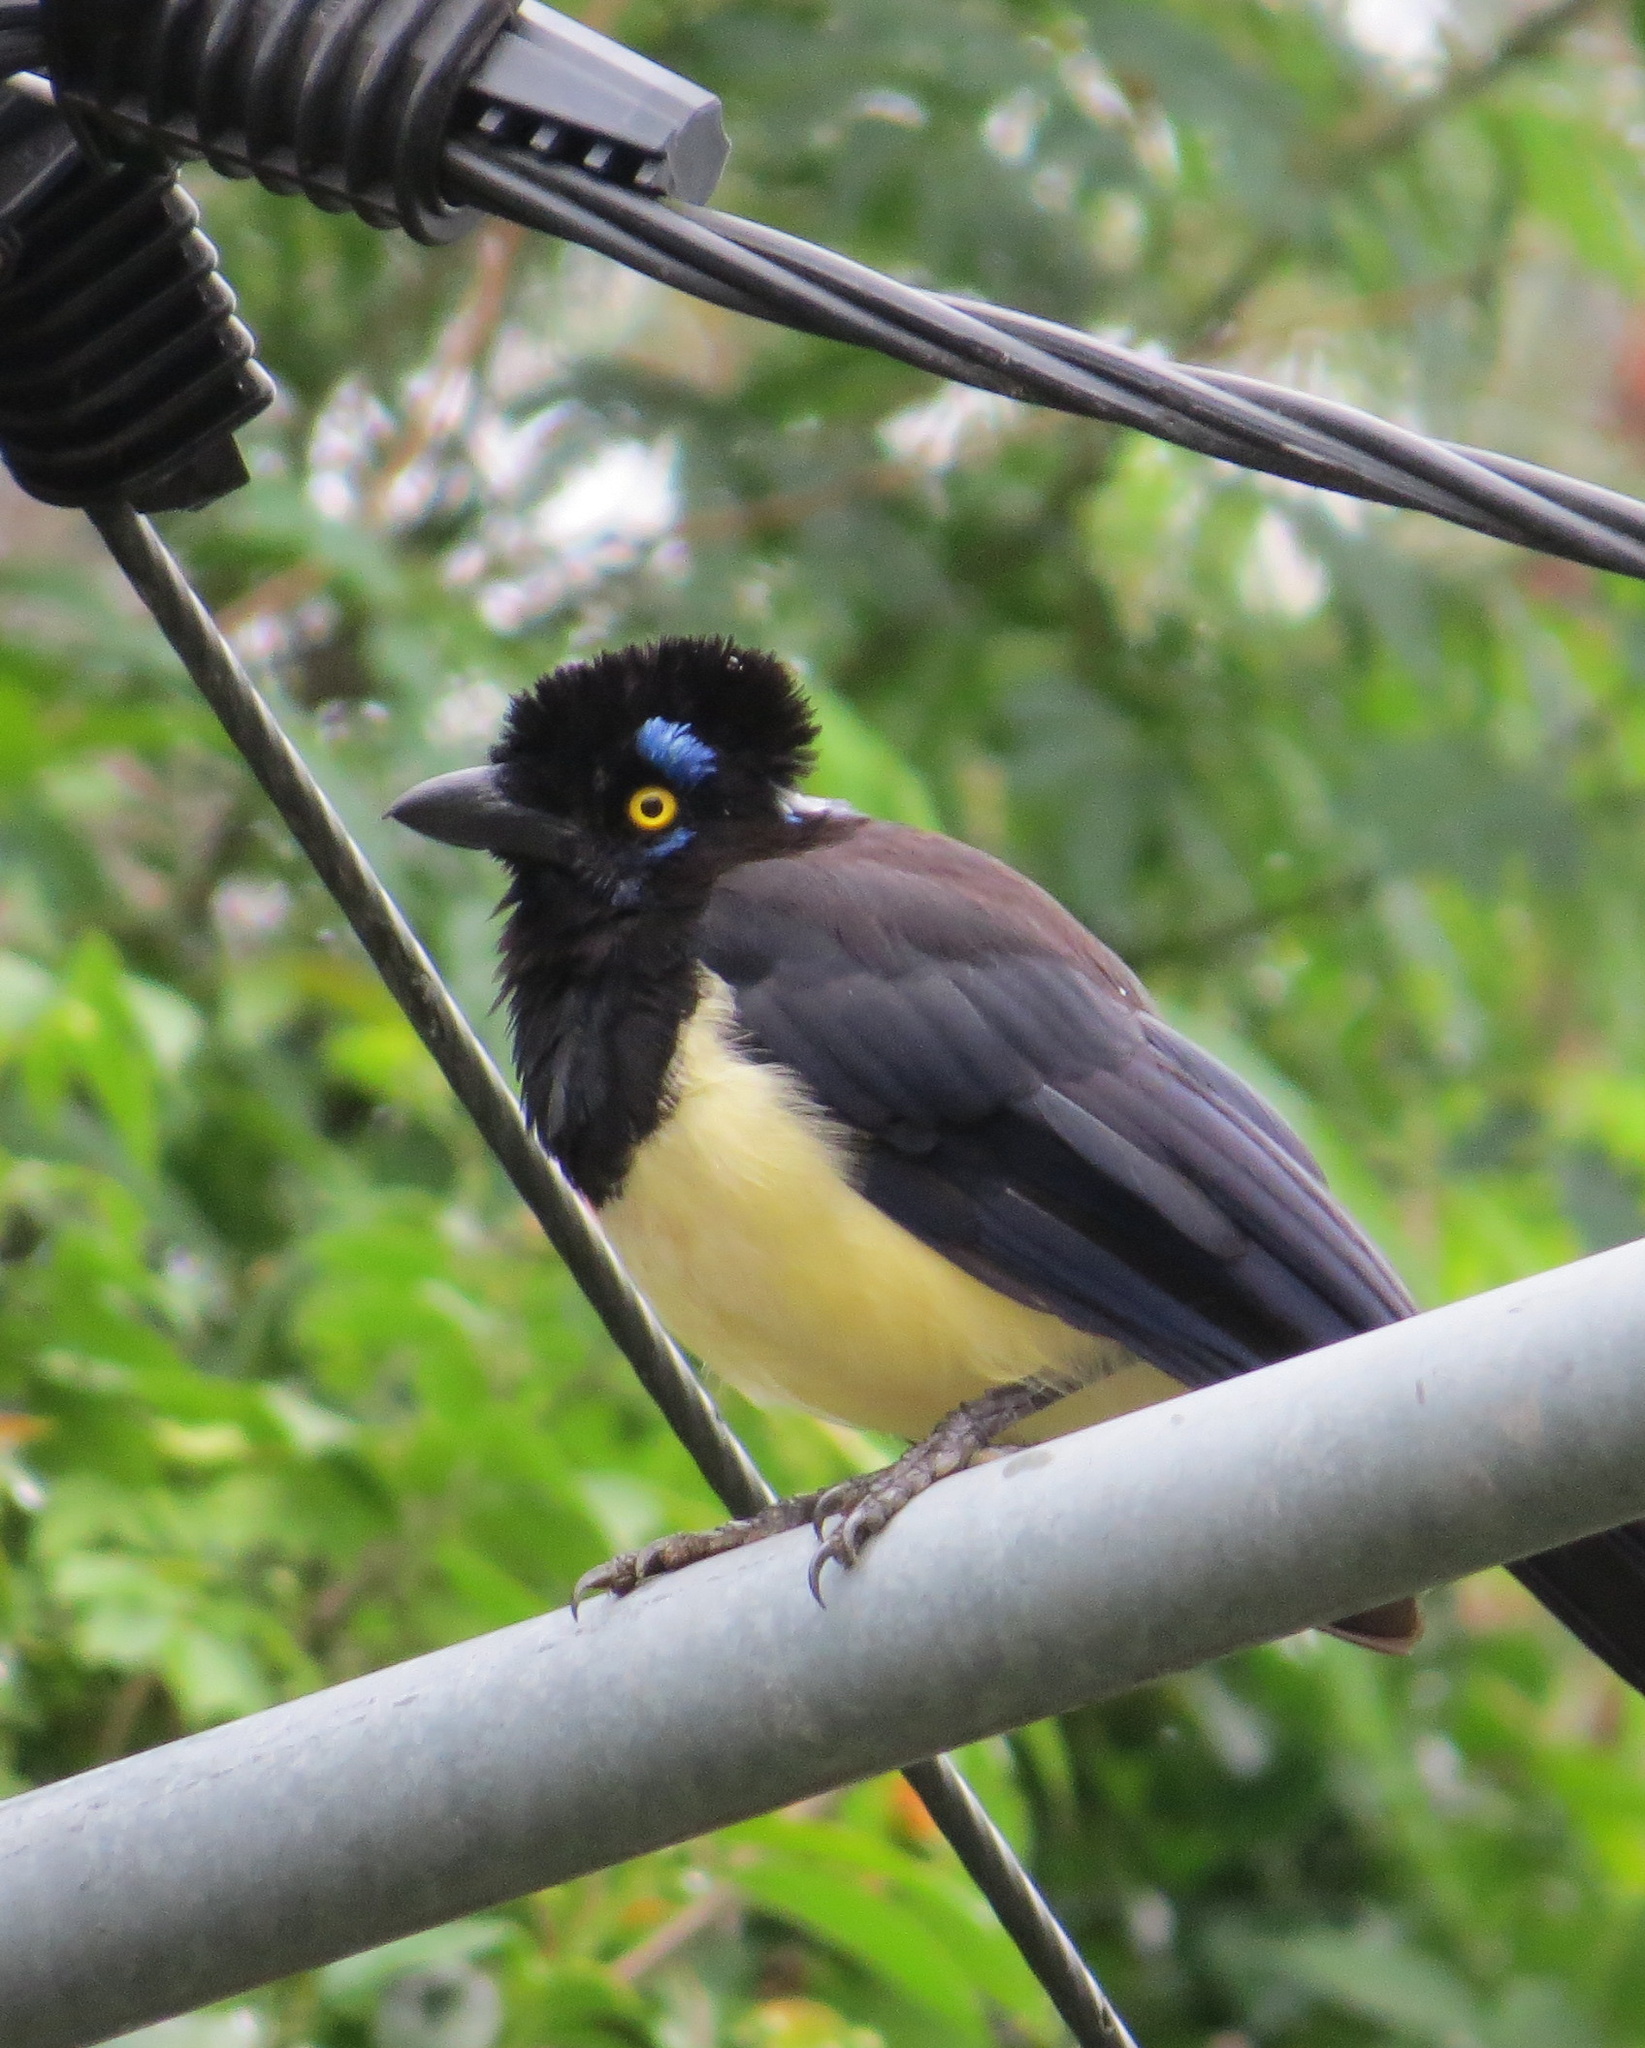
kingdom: Animalia
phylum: Chordata
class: Aves
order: Passeriformes
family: Corvidae
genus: Cyanocorax
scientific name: Cyanocorax chrysops
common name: Plush-crested jay
